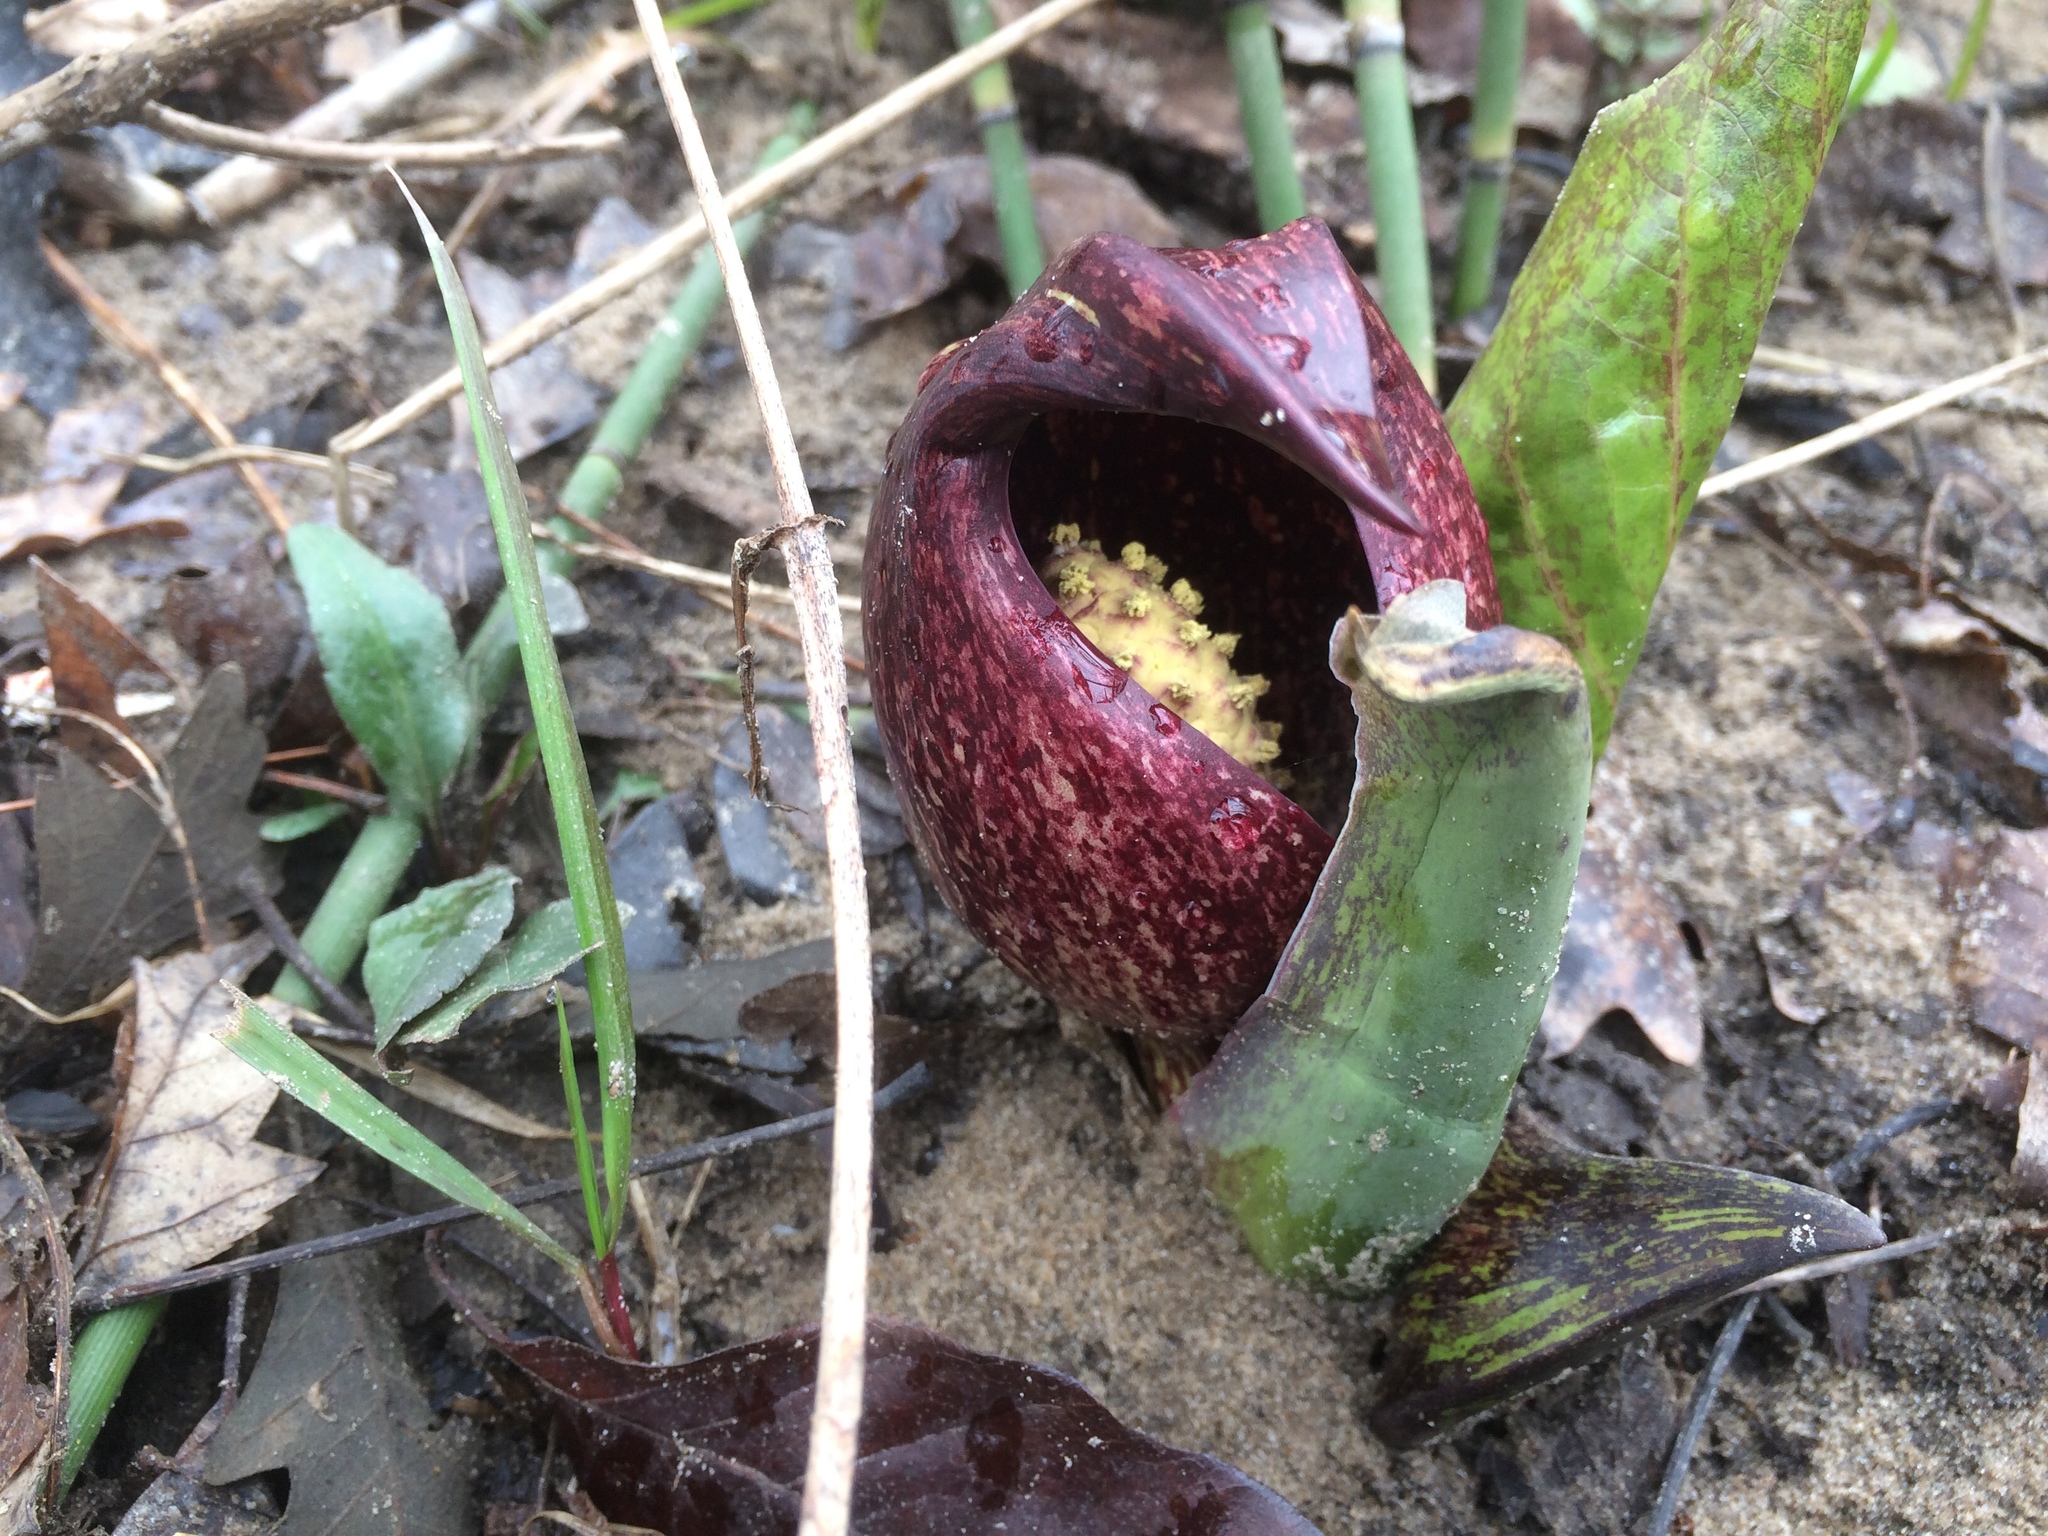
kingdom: Plantae
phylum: Tracheophyta
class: Liliopsida
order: Alismatales
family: Araceae
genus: Symplocarpus
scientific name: Symplocarpus foetidus
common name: Eastern skunk cabbage
